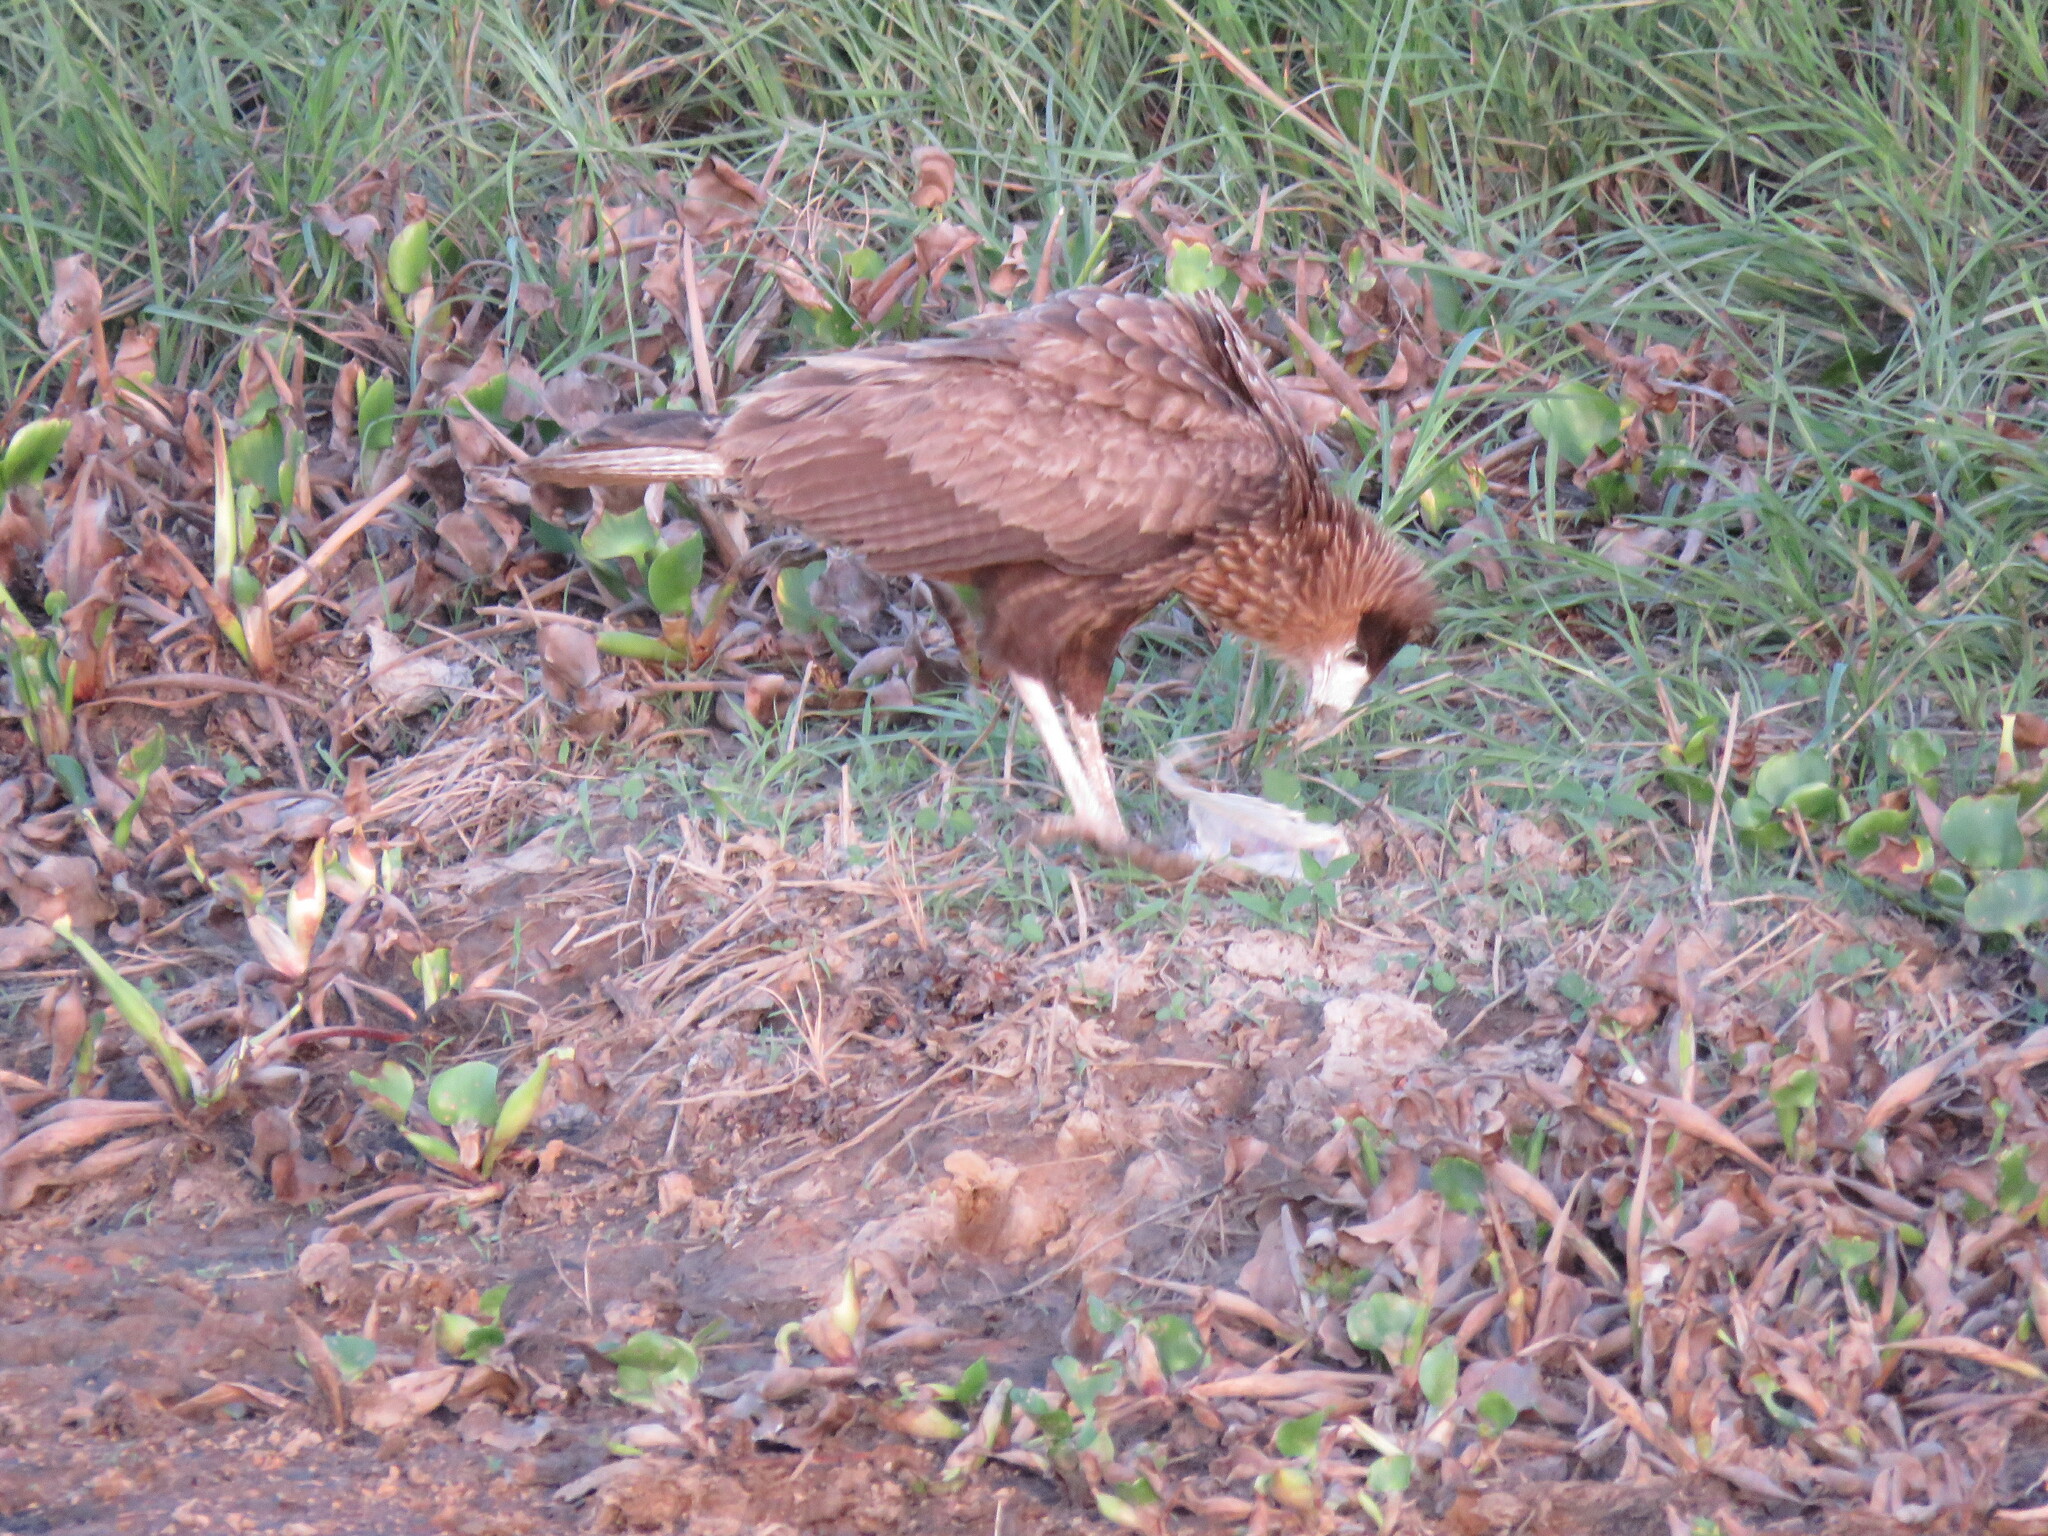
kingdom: Animalia
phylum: Chordata
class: Aves
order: Falconiformes
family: Falconidae
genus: Caracara
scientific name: Caracara plancus
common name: Southern caracara
